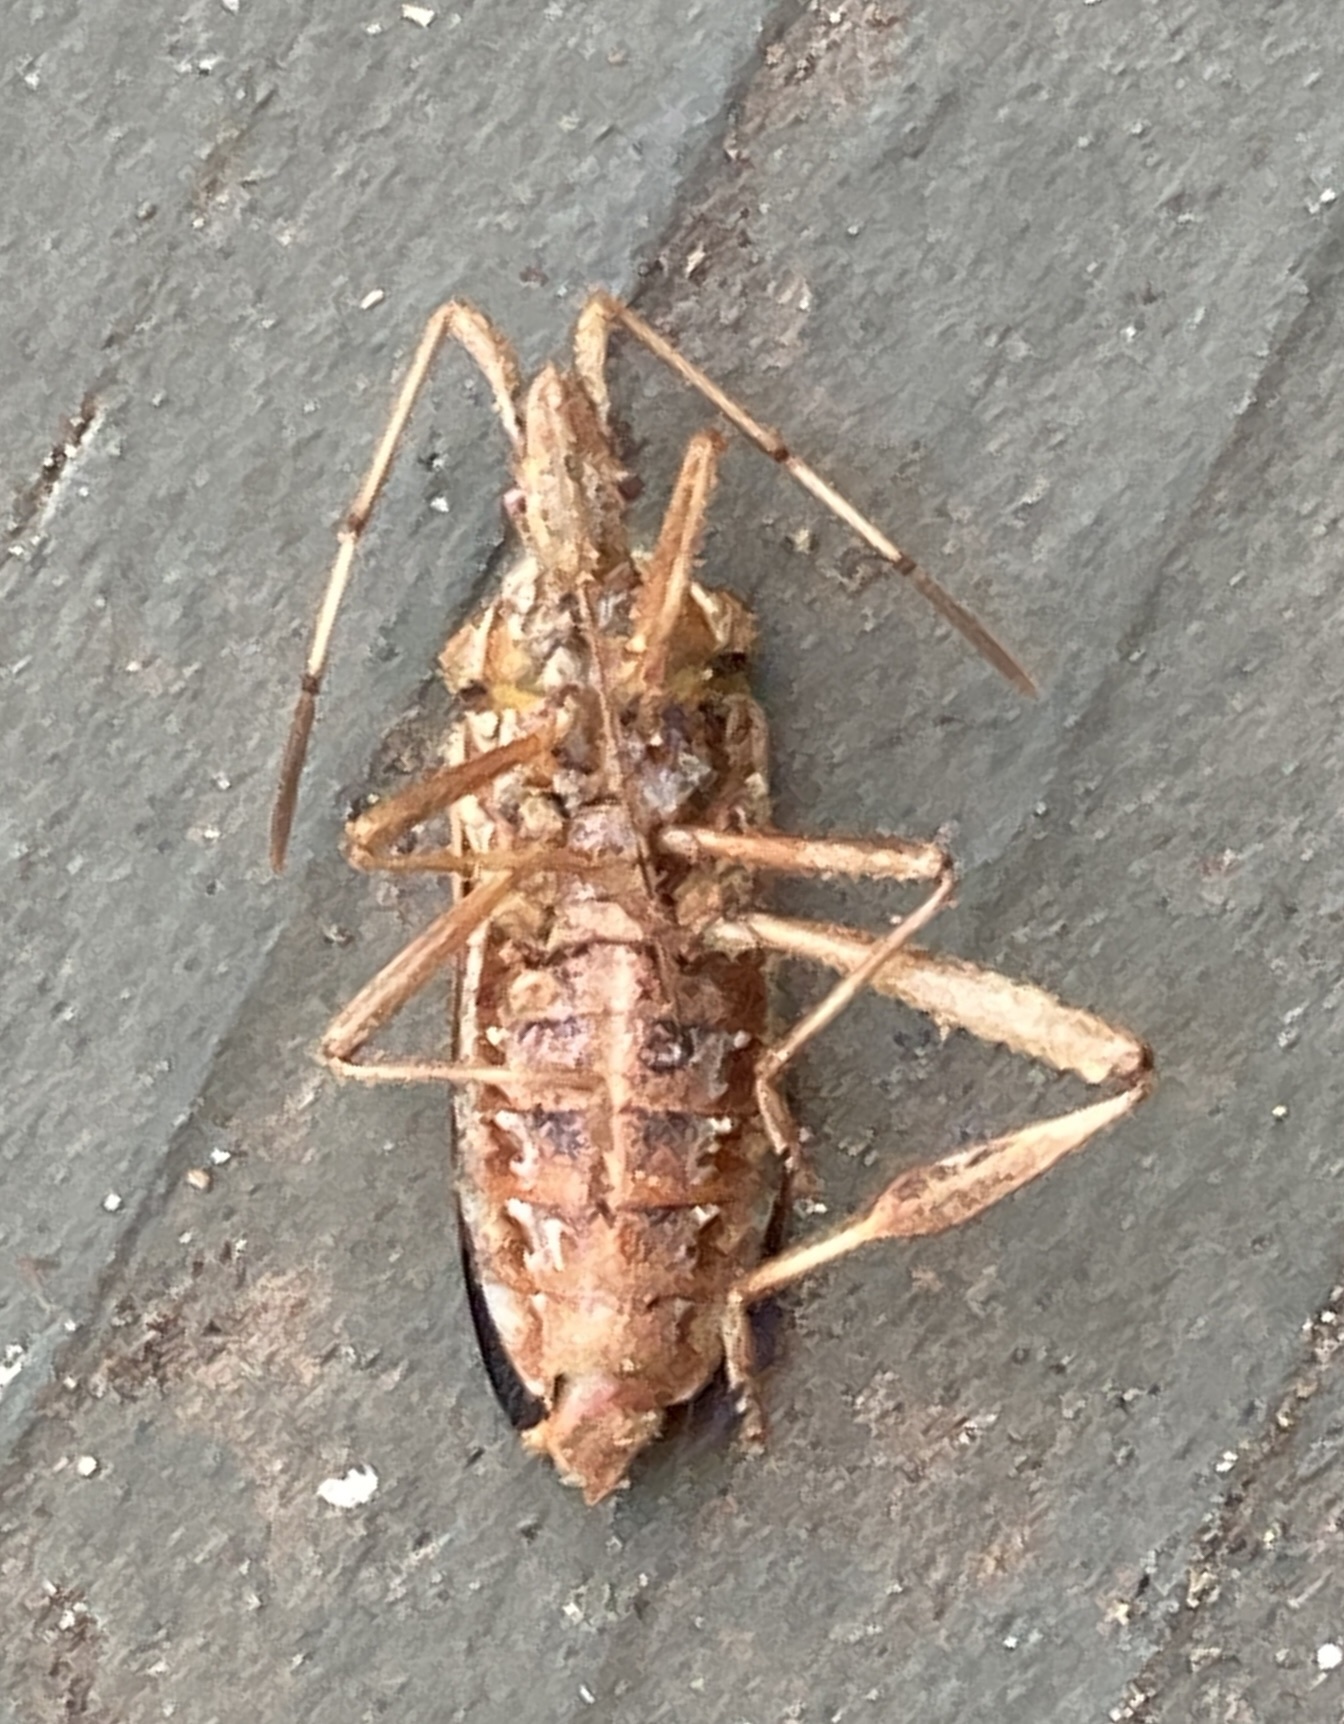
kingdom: Animalia
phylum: Arthropoda
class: Insecta
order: Hemiptera
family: Coreidae
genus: Leptoglossus
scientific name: Leptoglossus occidentalis
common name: Western conifer-seed bug
